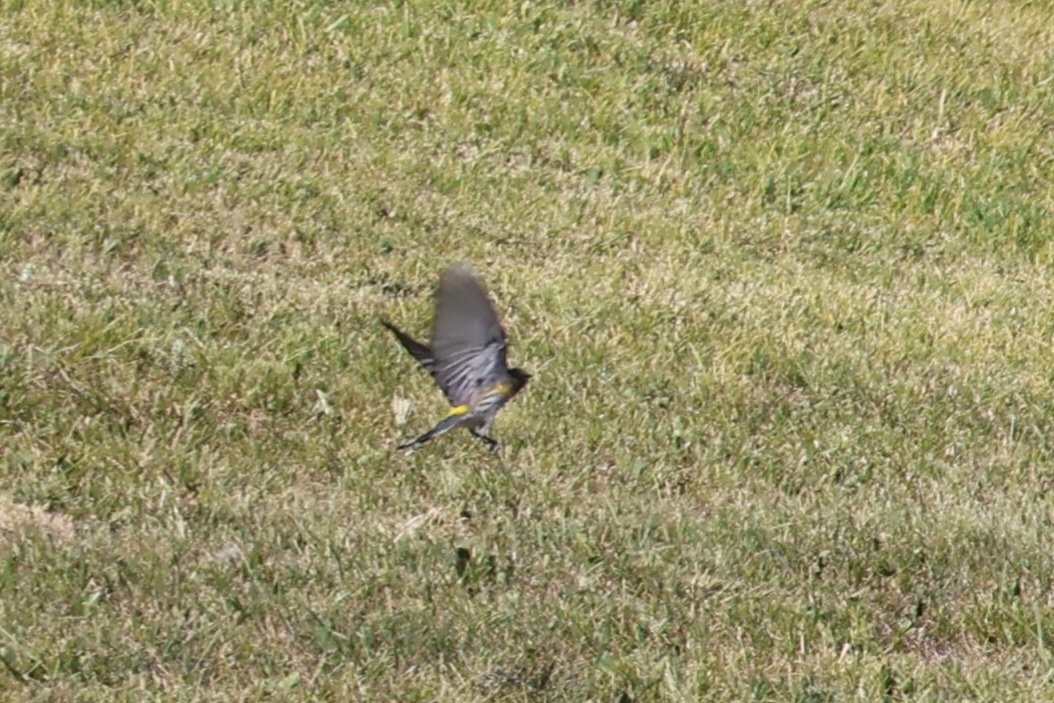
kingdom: Animalia
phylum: Chordata
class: Aves
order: Passeriformes
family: Parulidae
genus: Setophaga
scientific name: Setophaga coronata
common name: Myrtle warbler
